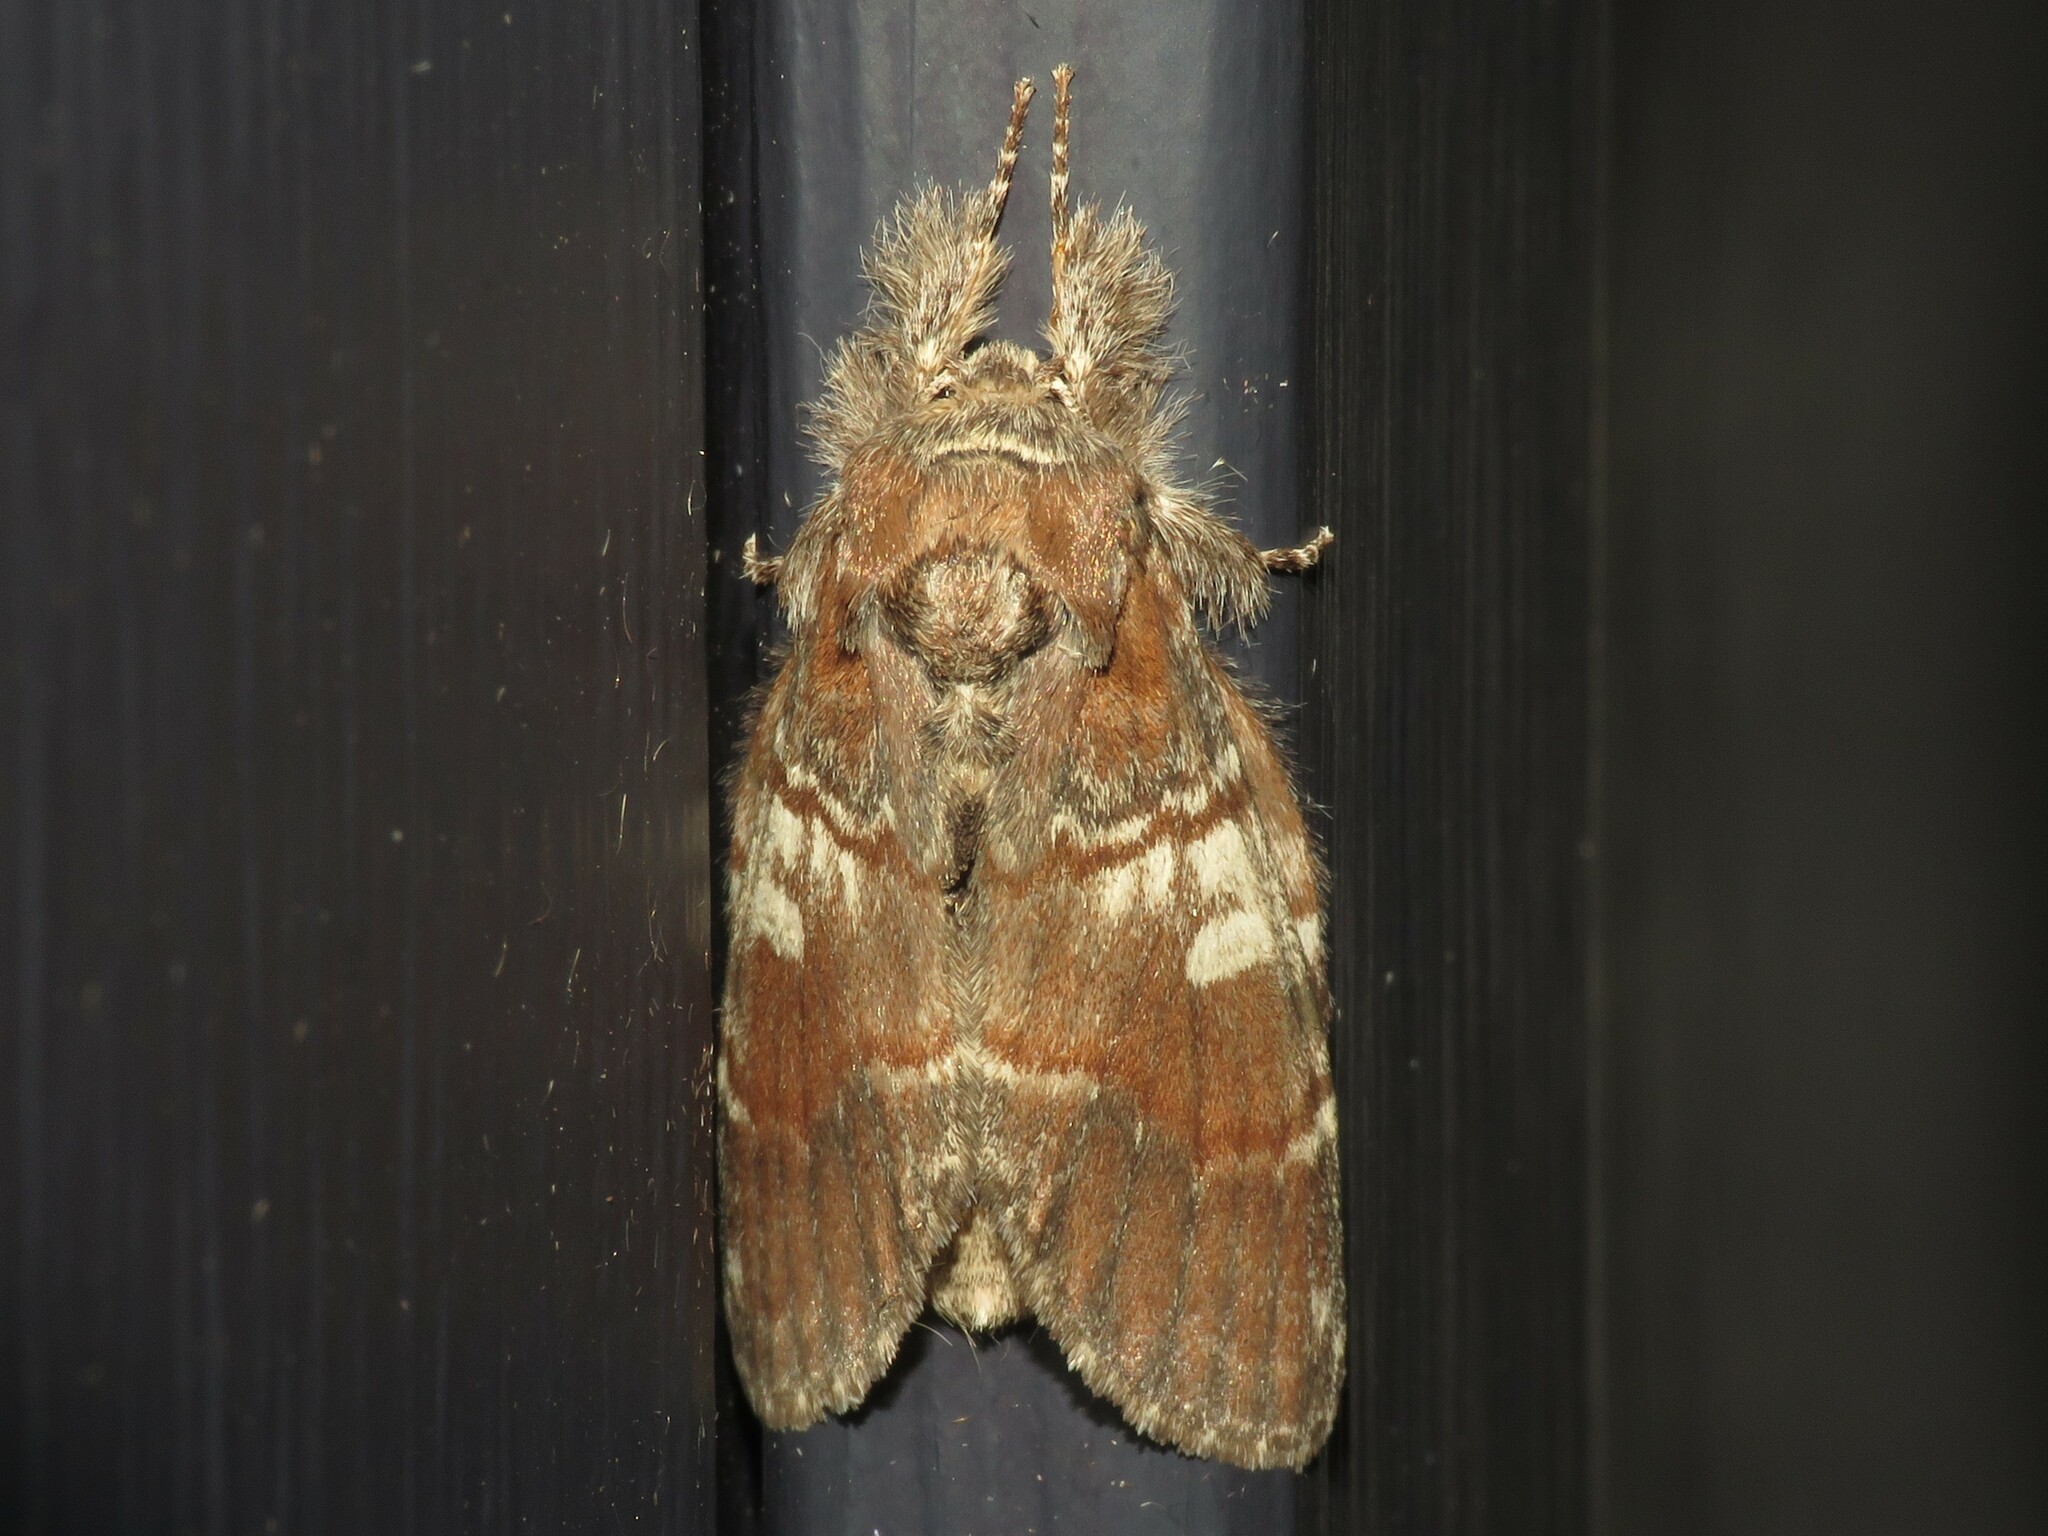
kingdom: Animalia
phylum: Arthropoda
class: Insecta
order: Lepidoptera
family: Notodontidae
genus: Peridea
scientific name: Peridea ferruginea
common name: Chocolate prominent
